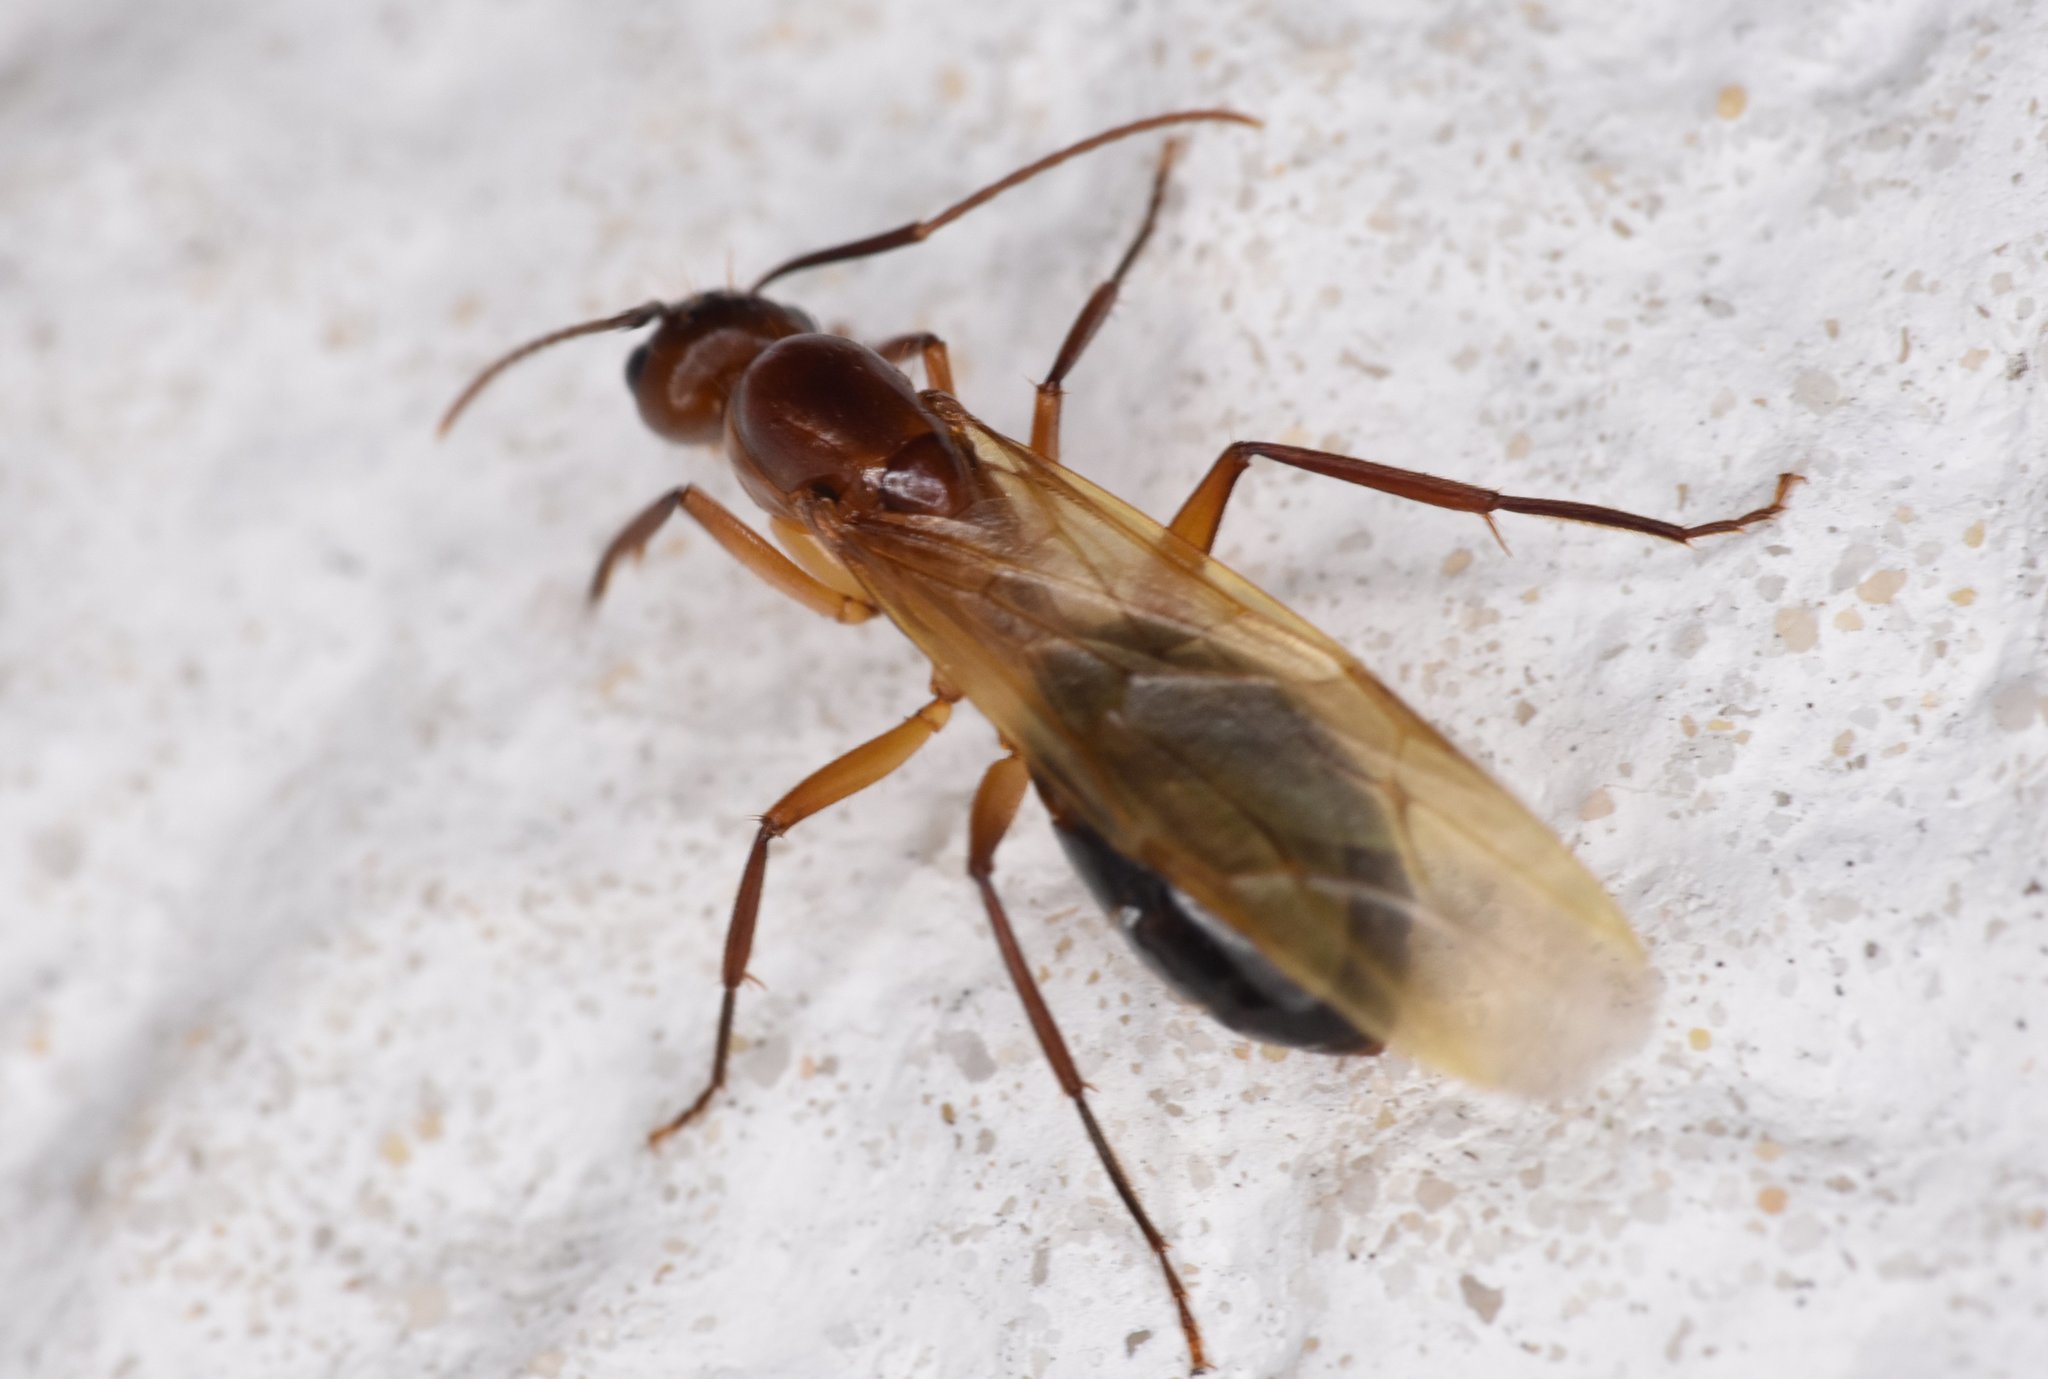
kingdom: Animalia
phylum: Arthropoda
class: Insecta
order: Hymenoptera
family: Formicidae
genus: Camponotus
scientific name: Camponotus inaequalis
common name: Ant
